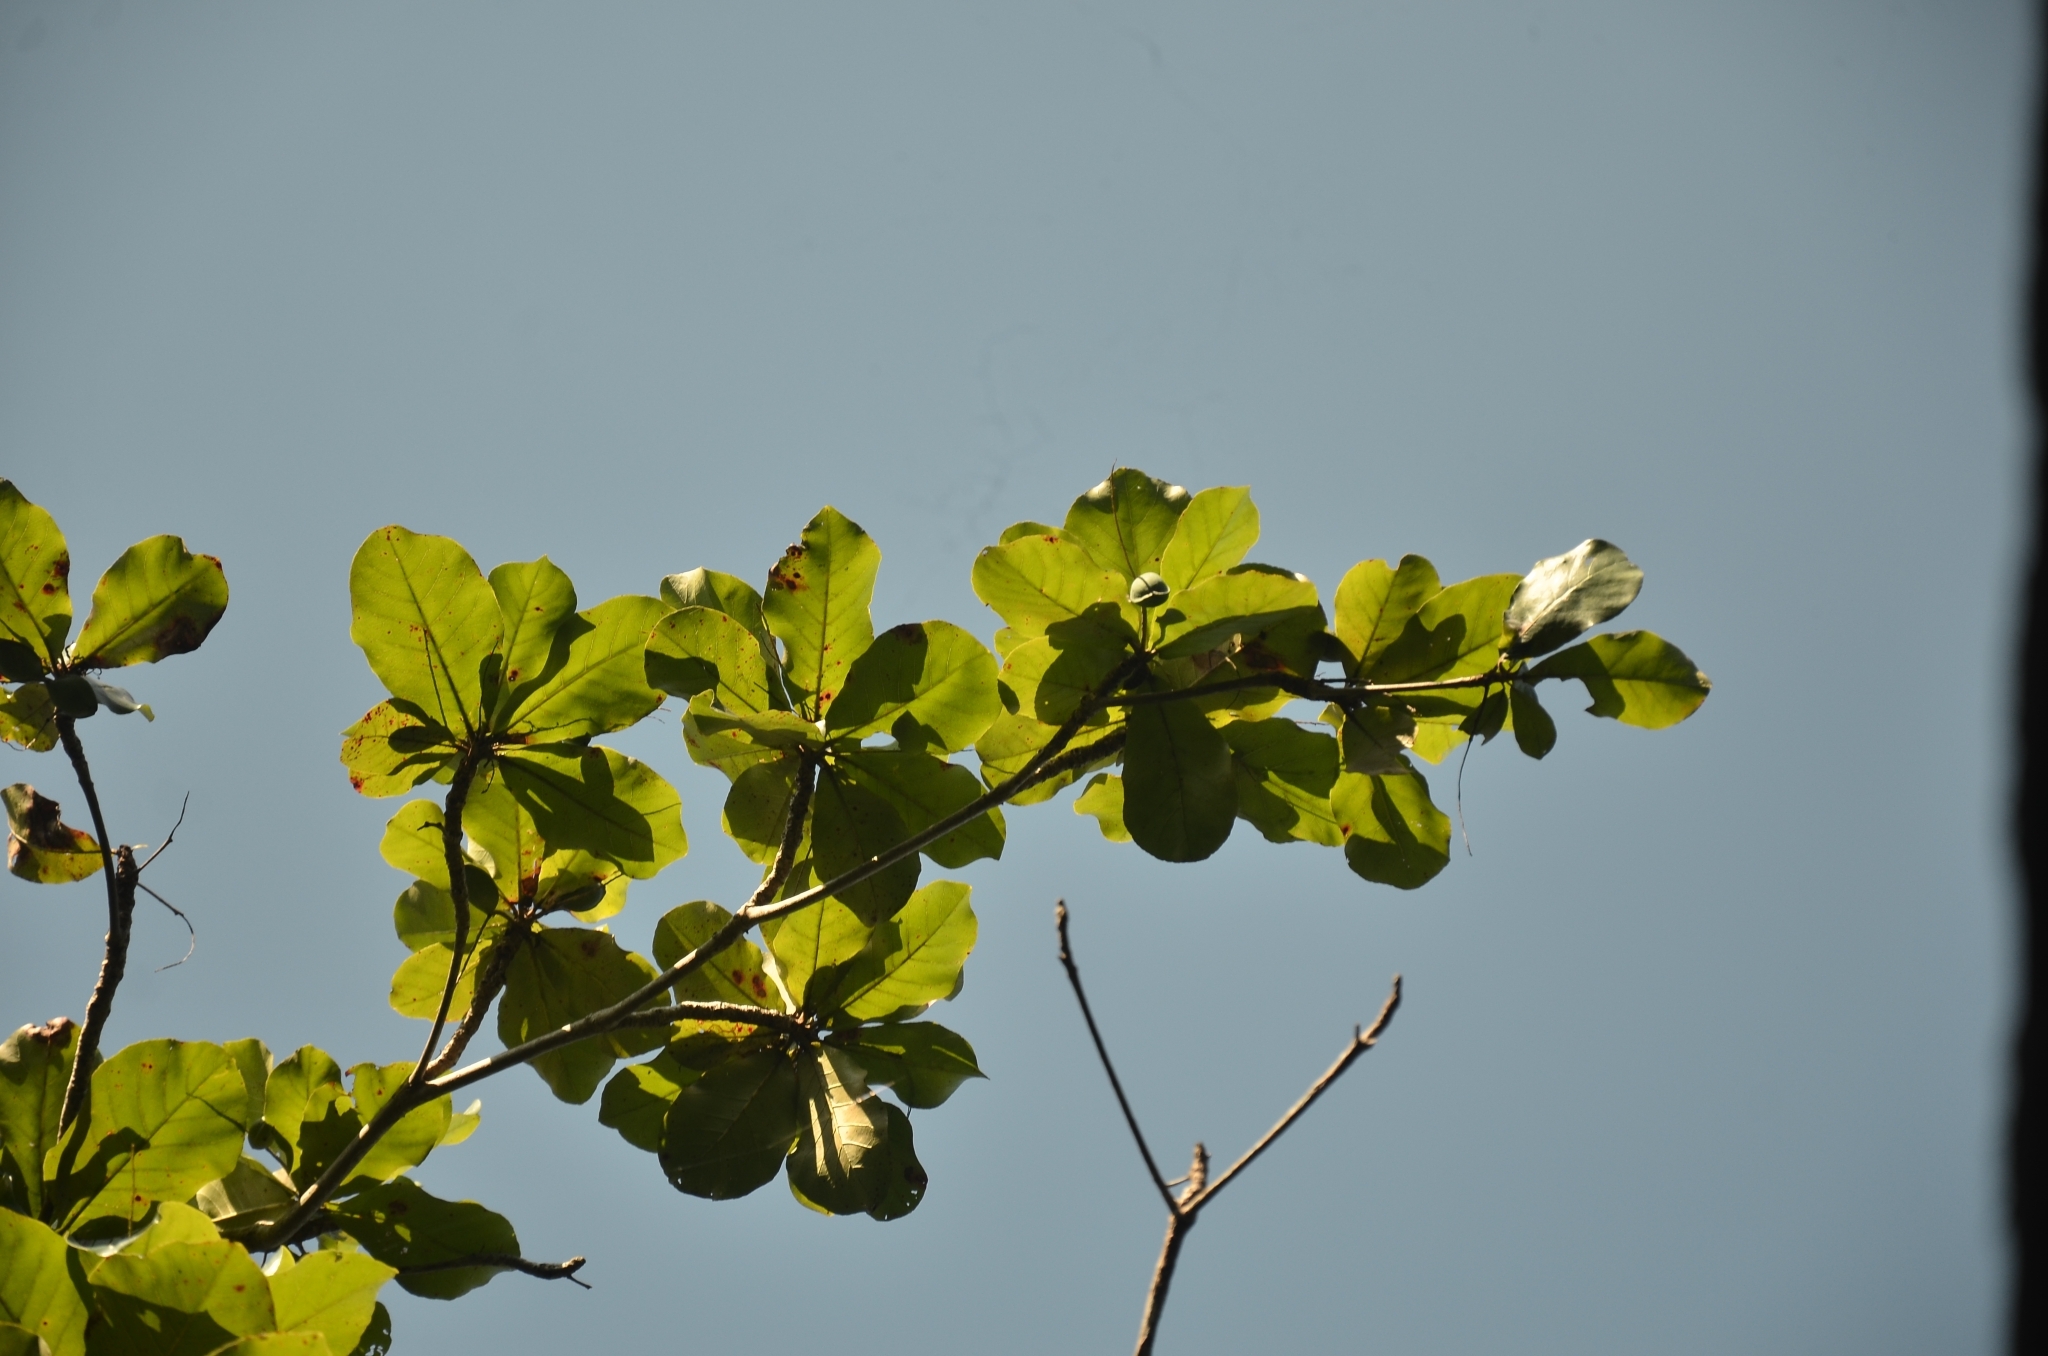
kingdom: Plantae
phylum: Tracheophyta
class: Magnoliopsida
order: Myrtales
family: Combretaceae
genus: Terminalia
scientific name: Terminalia catappa
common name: Tropical almond
